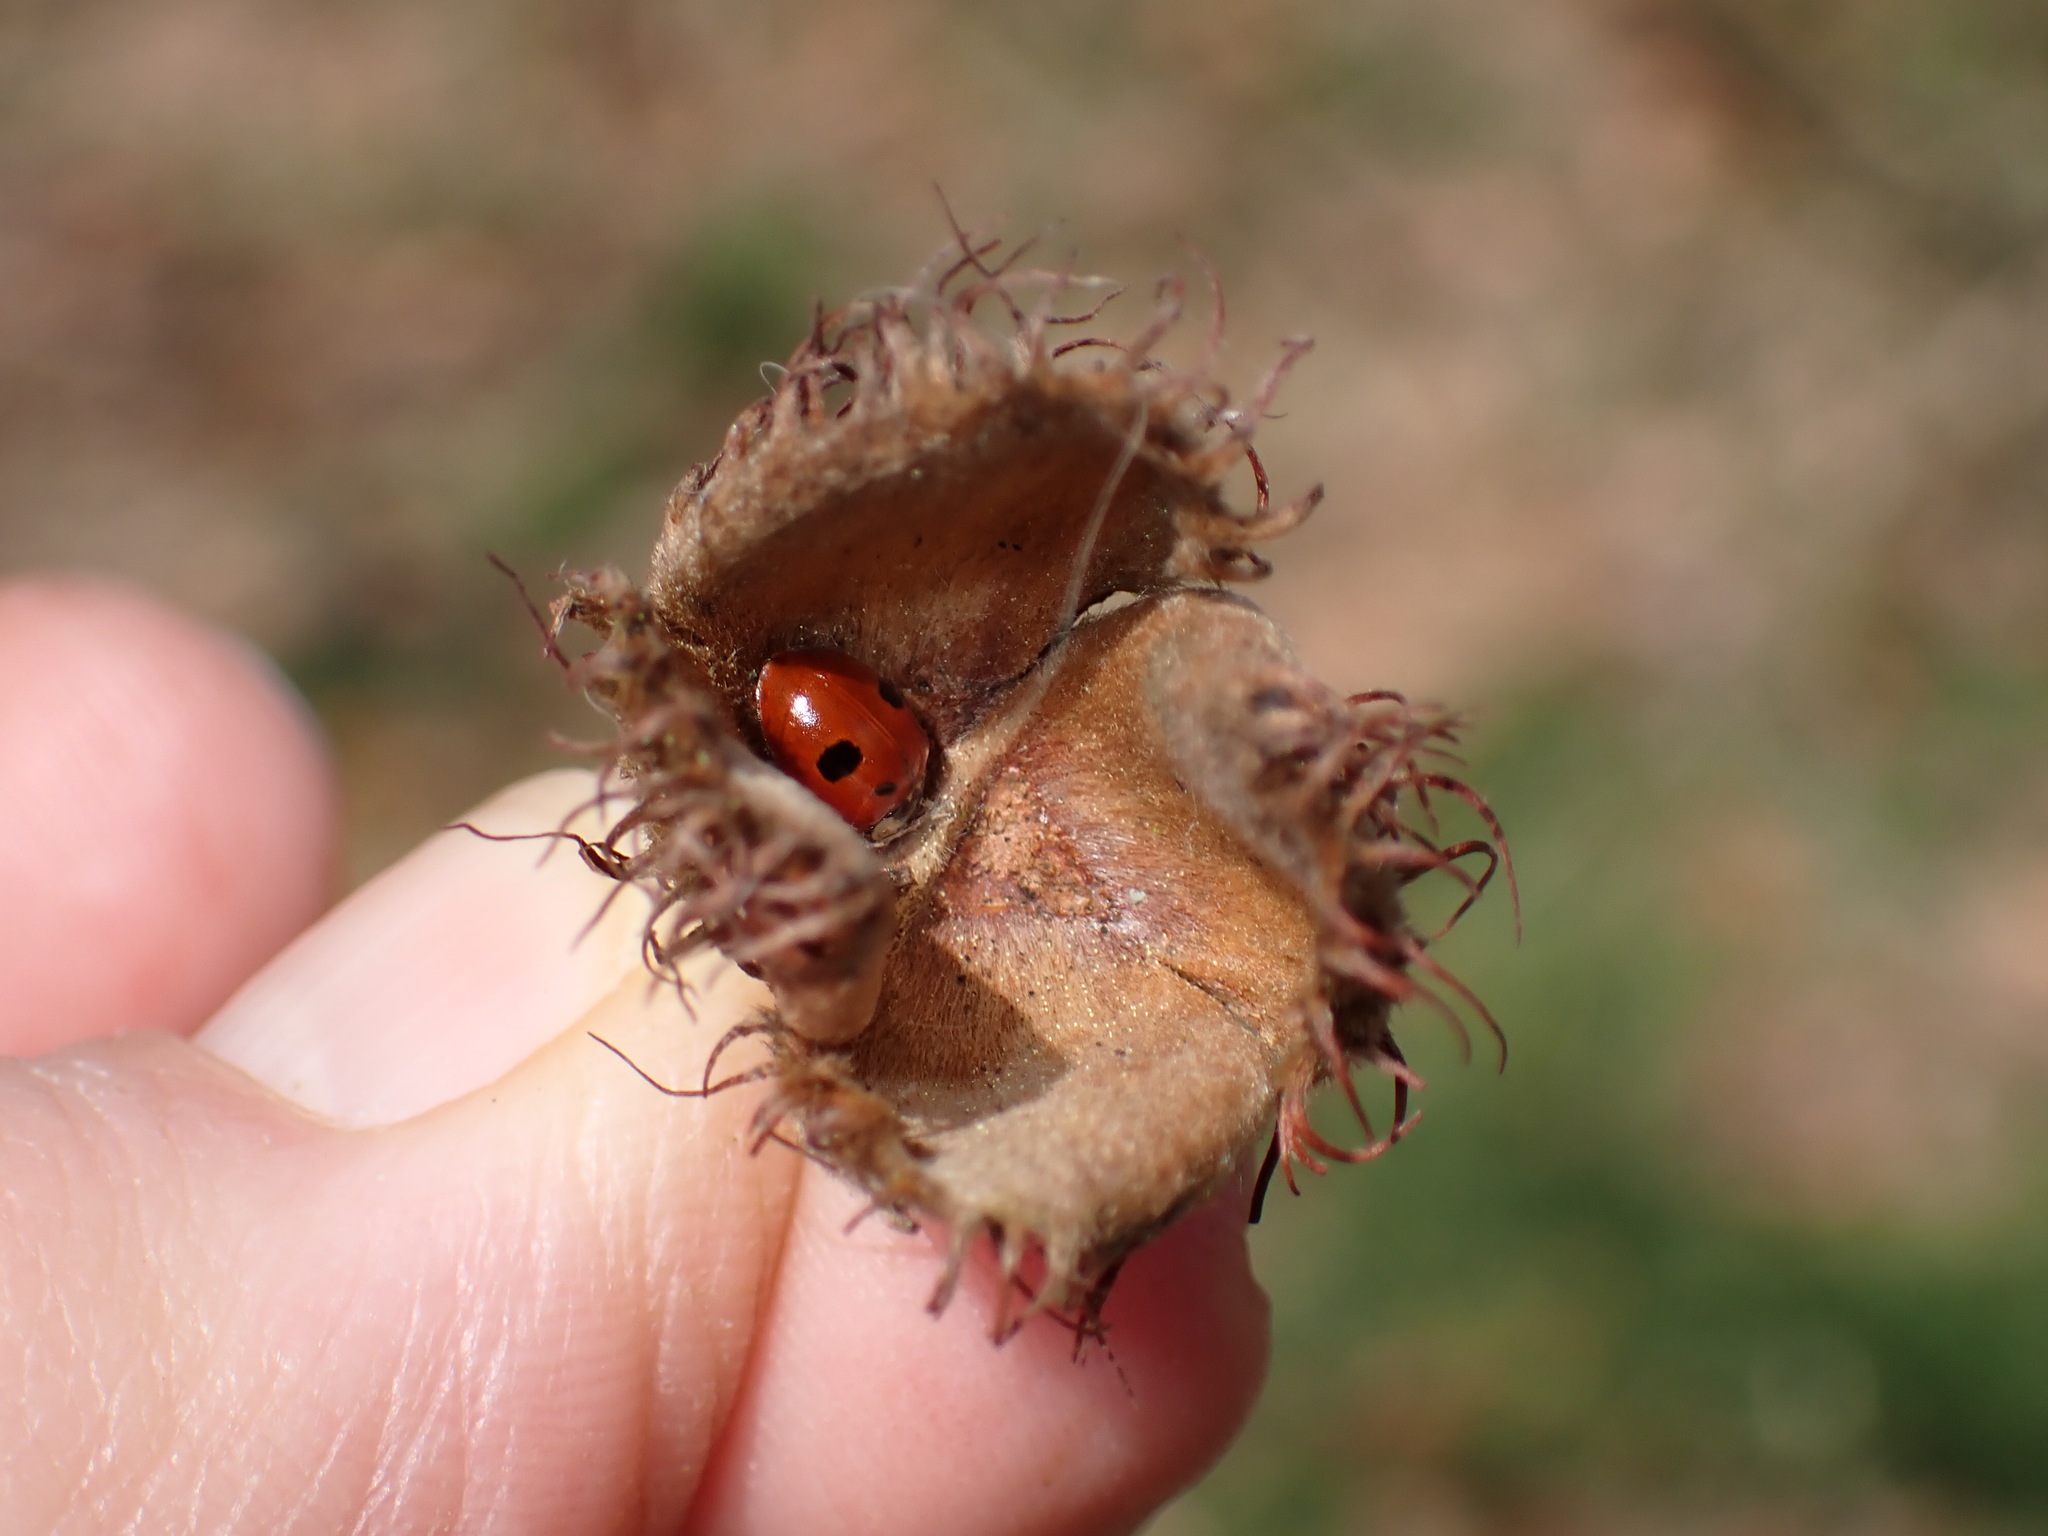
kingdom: Animalia
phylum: Arthropoda
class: Insecta
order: Coleoptera
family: Coccinellidae
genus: Adalia
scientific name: Adalia bipunctata
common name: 2-spot ladybird
